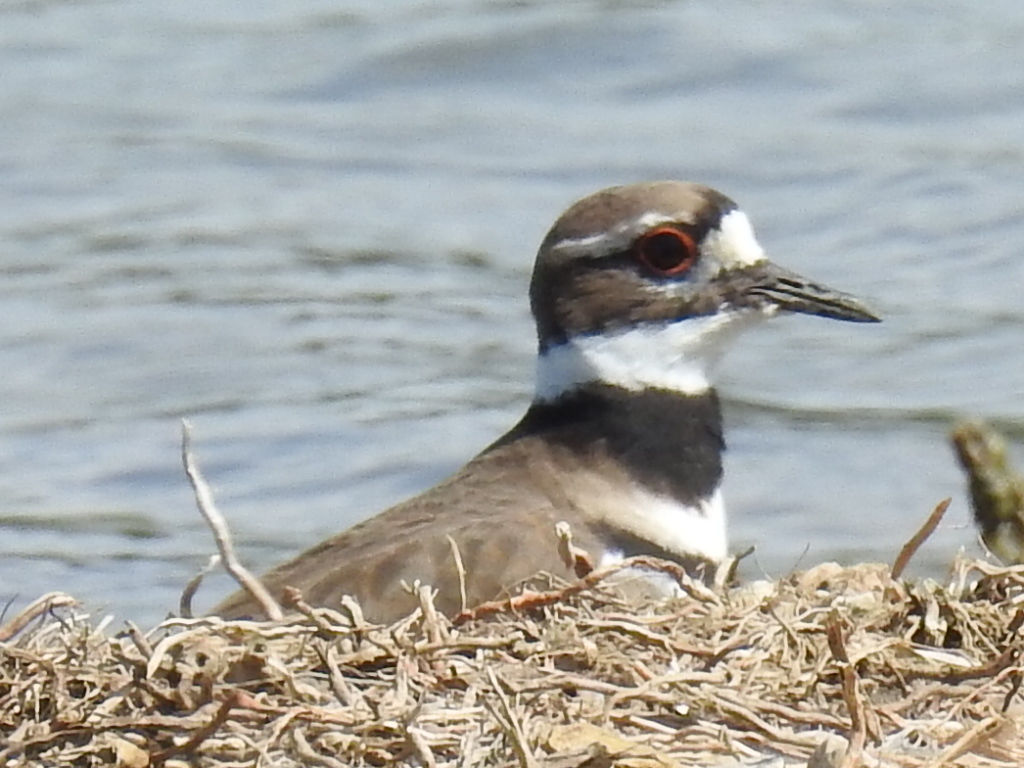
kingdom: Animalia
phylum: Chordata
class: Aves
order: Charadriiformes
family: Charadriidae
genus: Charadrius
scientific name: Charadrius vociferus
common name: Killdeer
